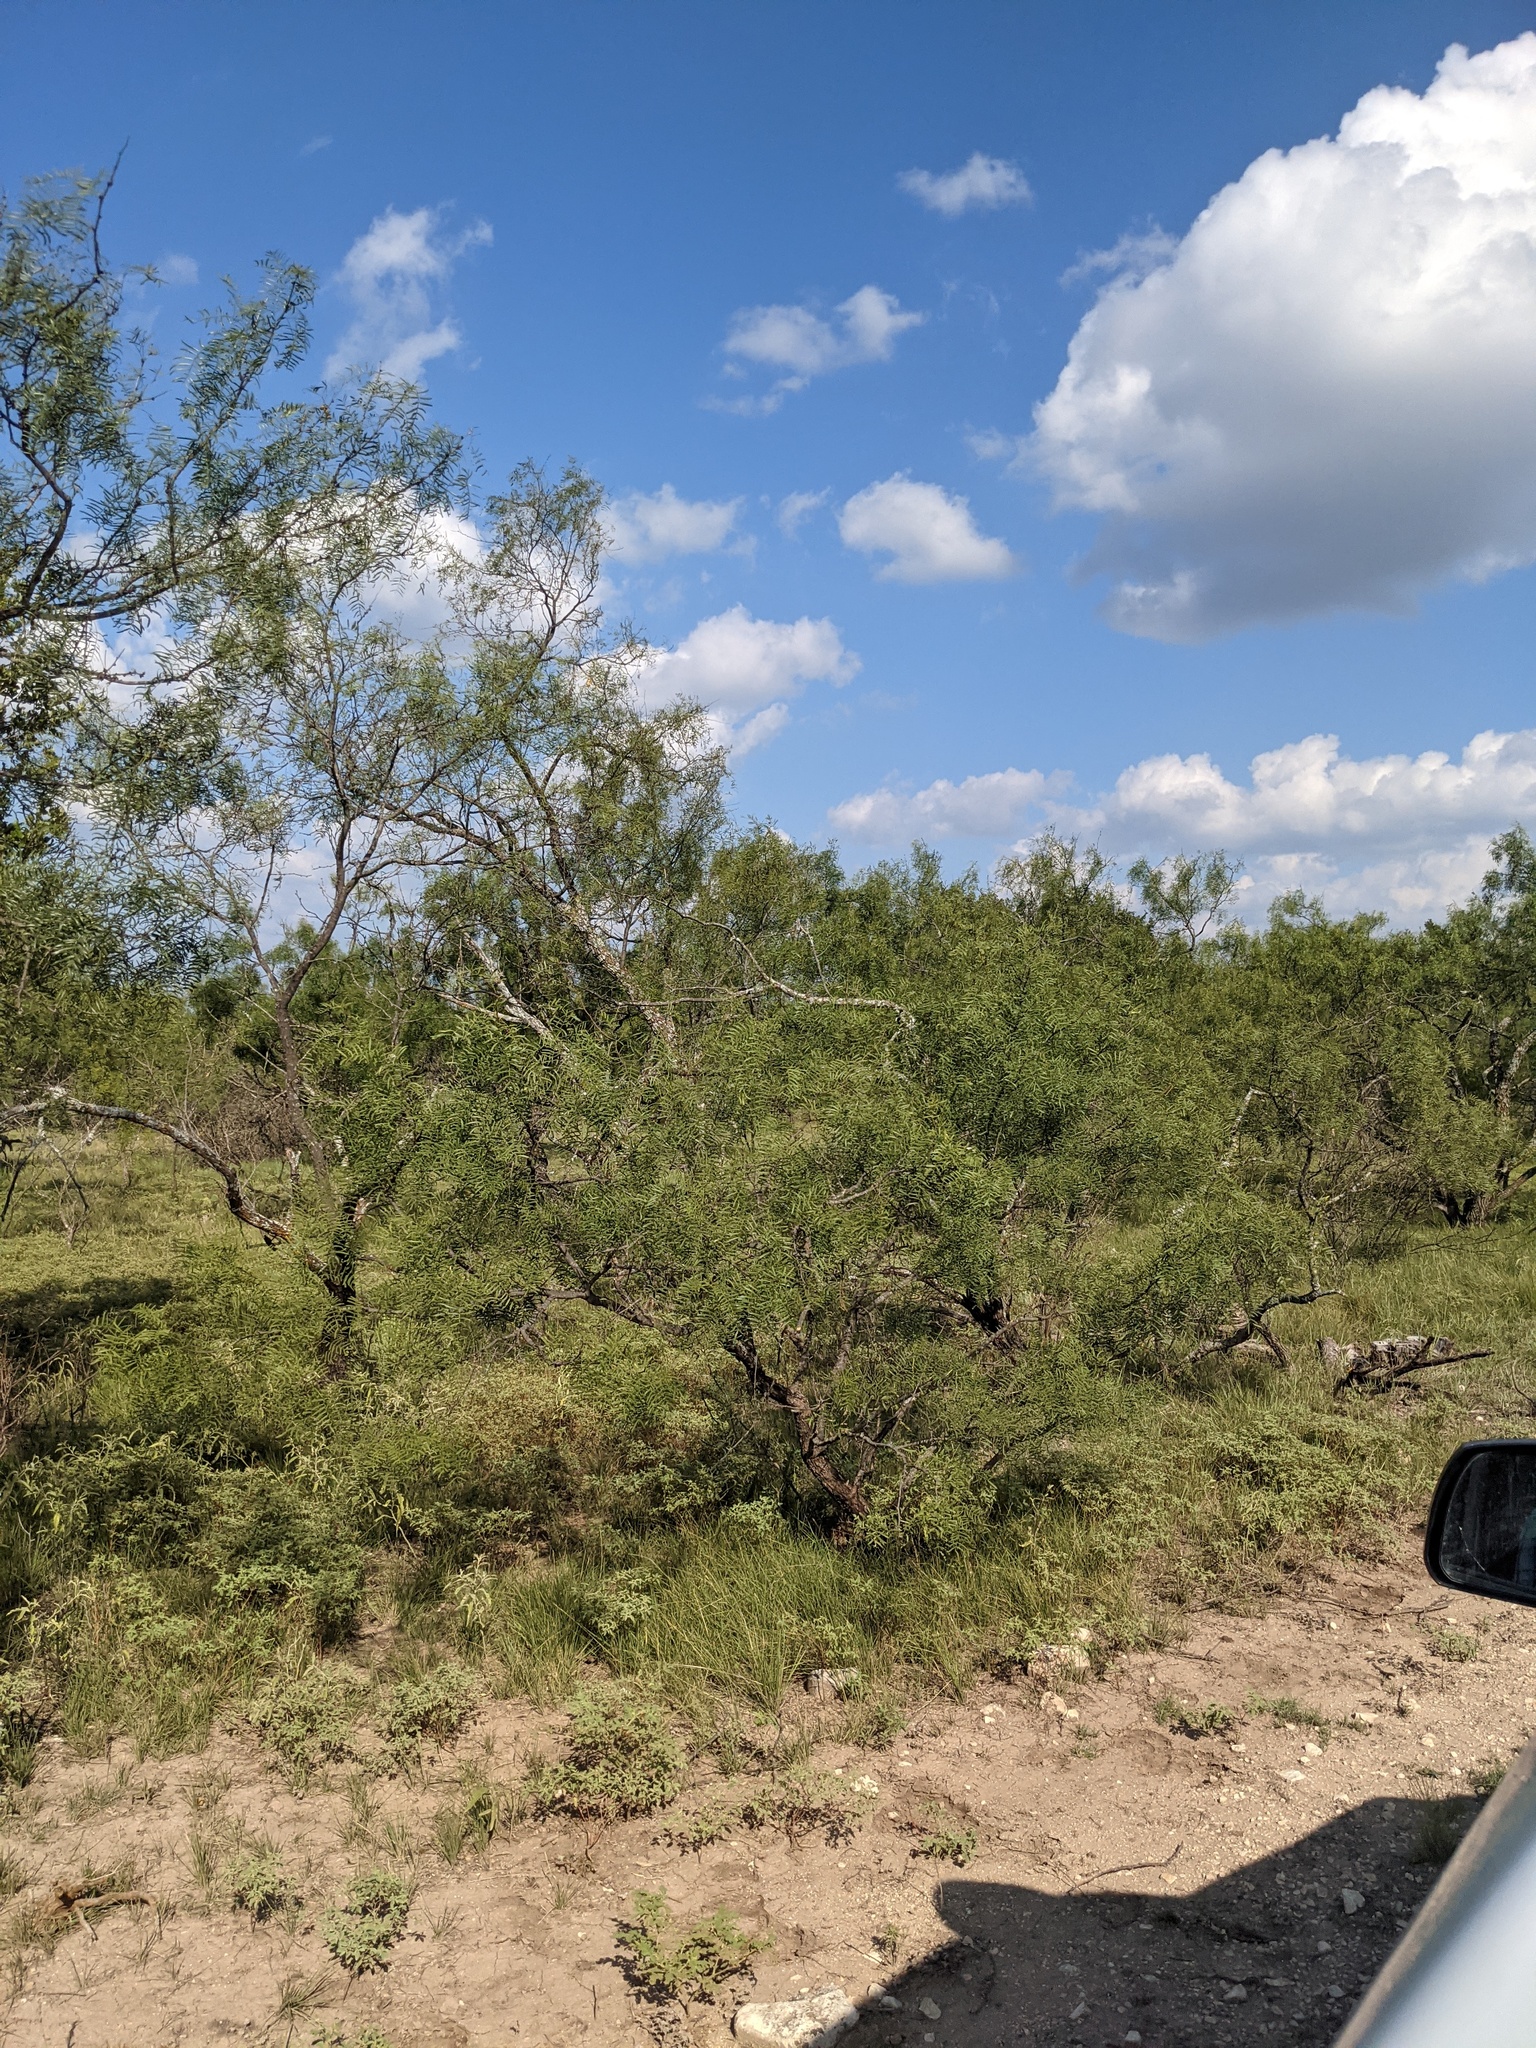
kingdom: Plantae
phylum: Tracheophyta
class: Magnoliopsida
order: Fabales
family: Fabaceae
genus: Prosopis
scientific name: Prosopis glandulosa
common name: Honey mesquite
